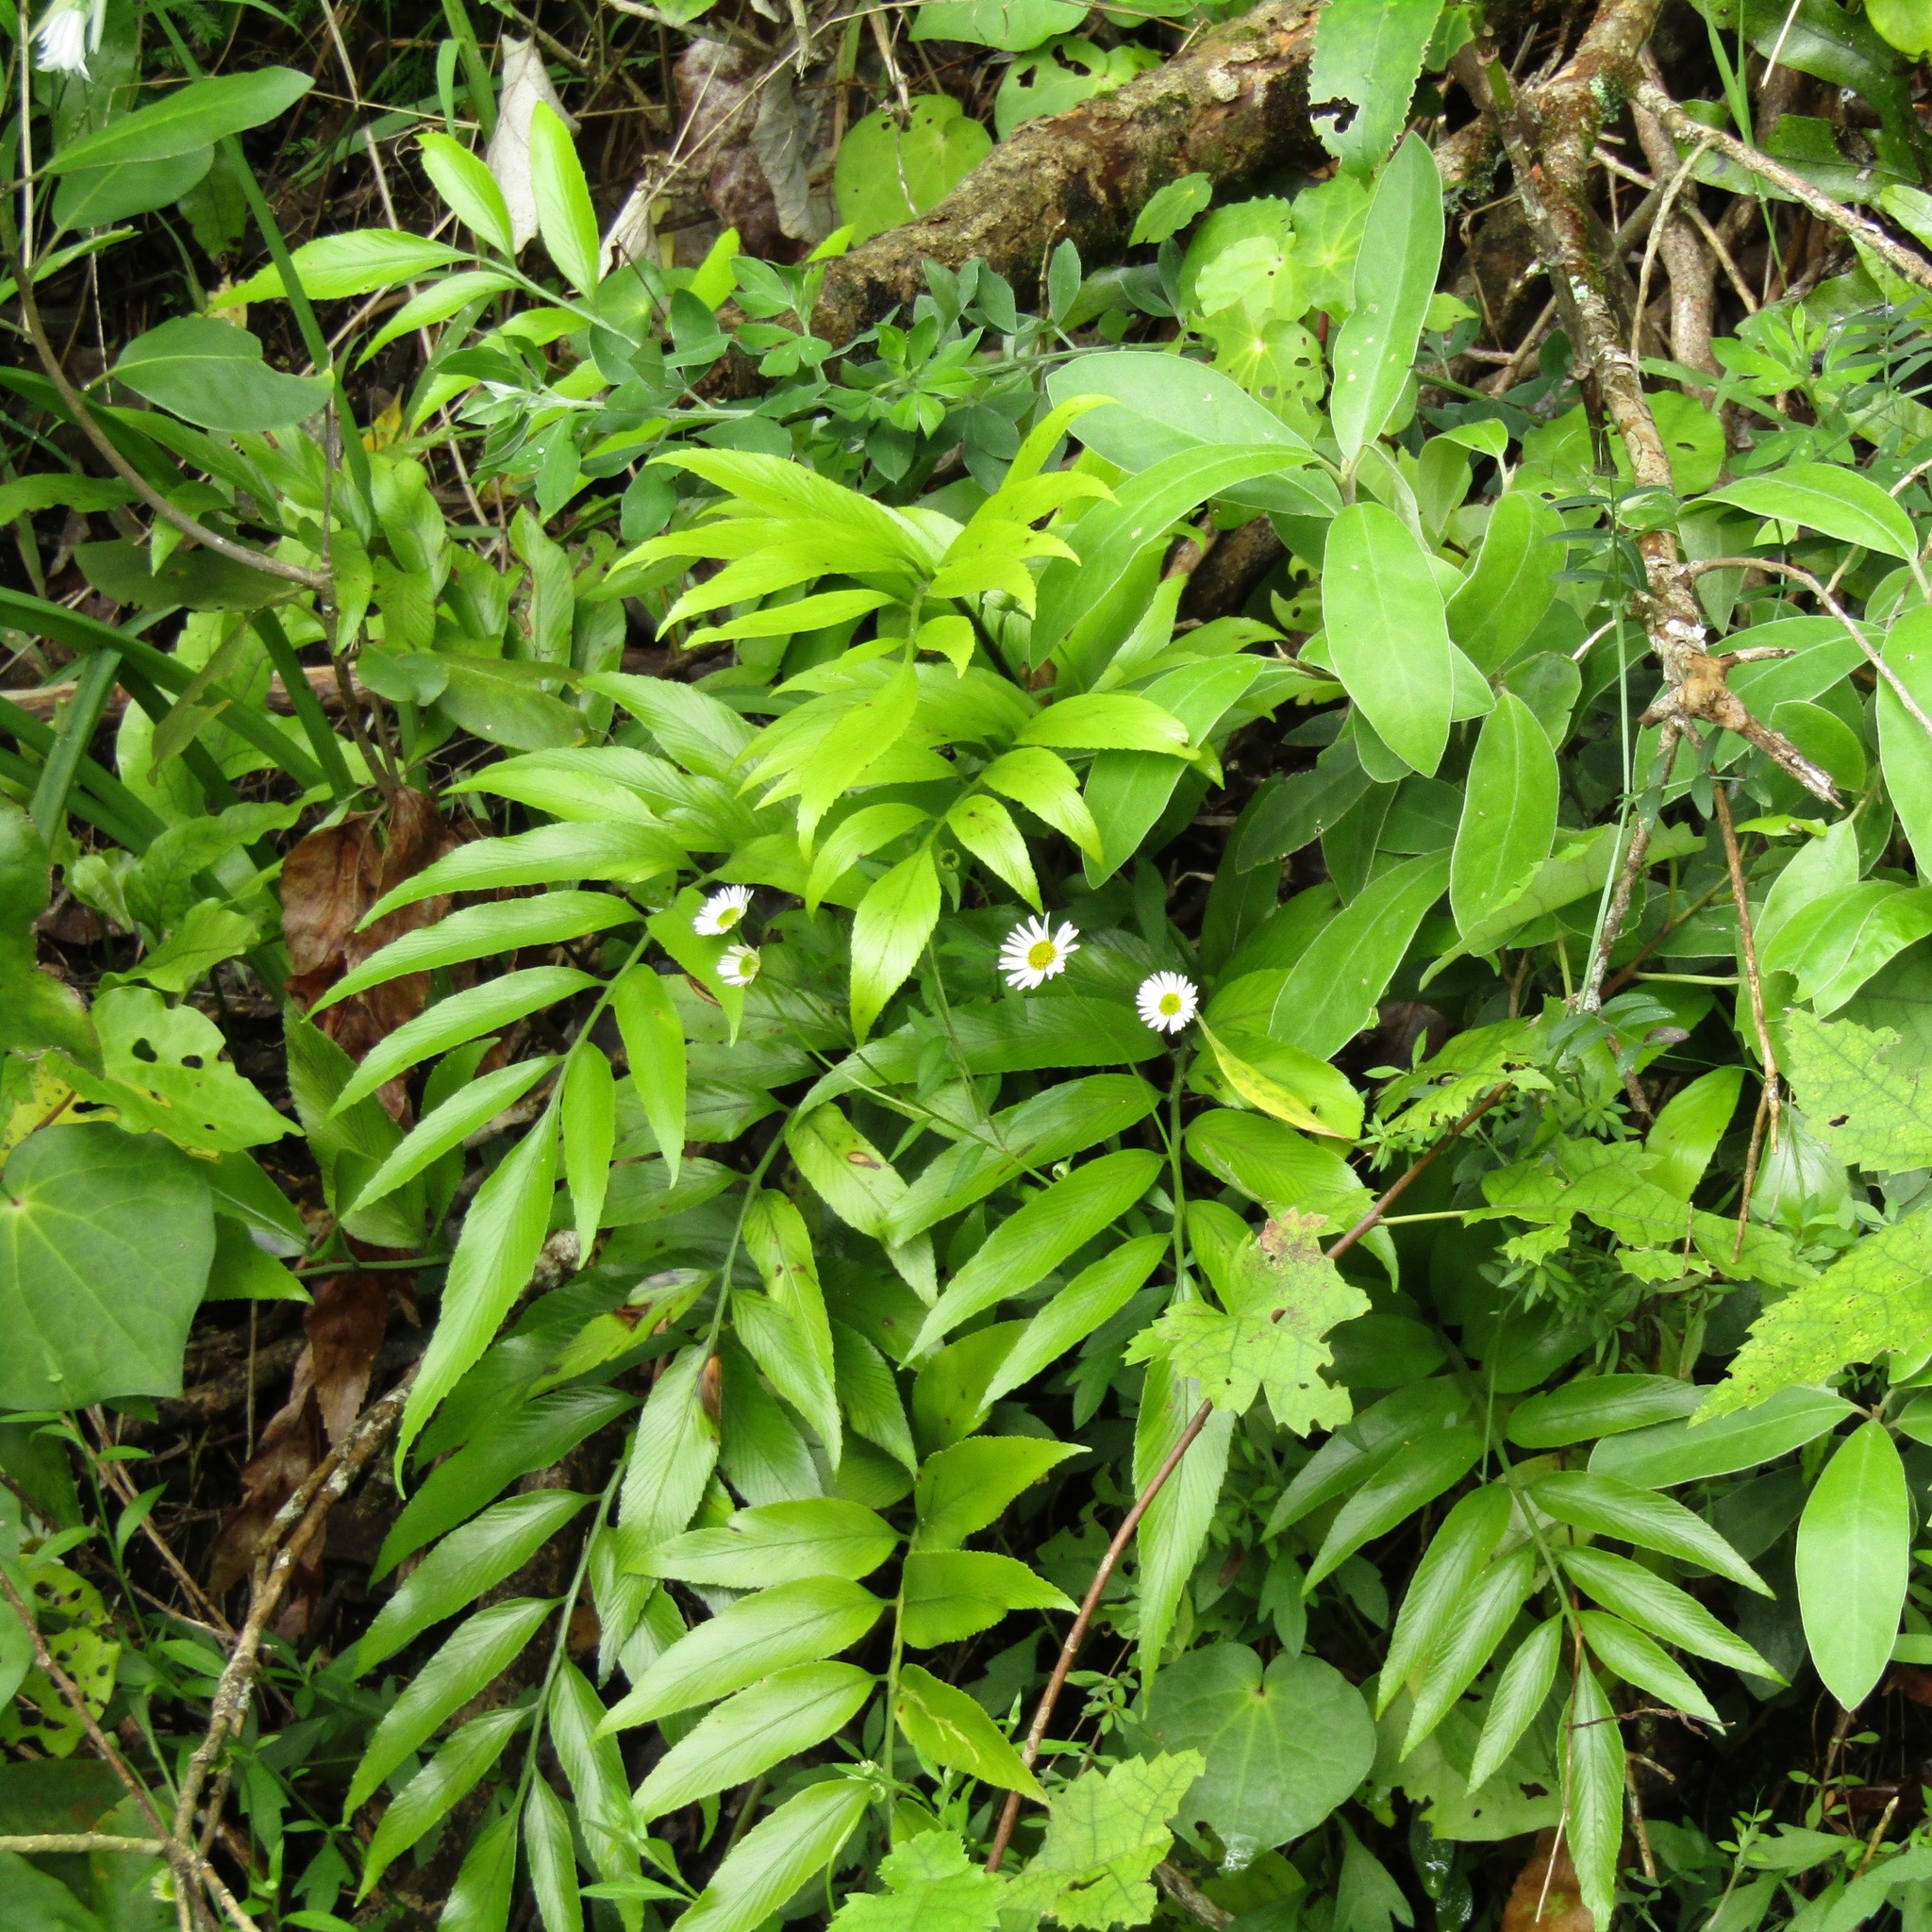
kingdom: Plantae
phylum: Tracheophyta
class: Polypodiopsida
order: Polypodiales
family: Aspleniaceae
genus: Asplenium
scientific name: Asplenium oblongifolium
